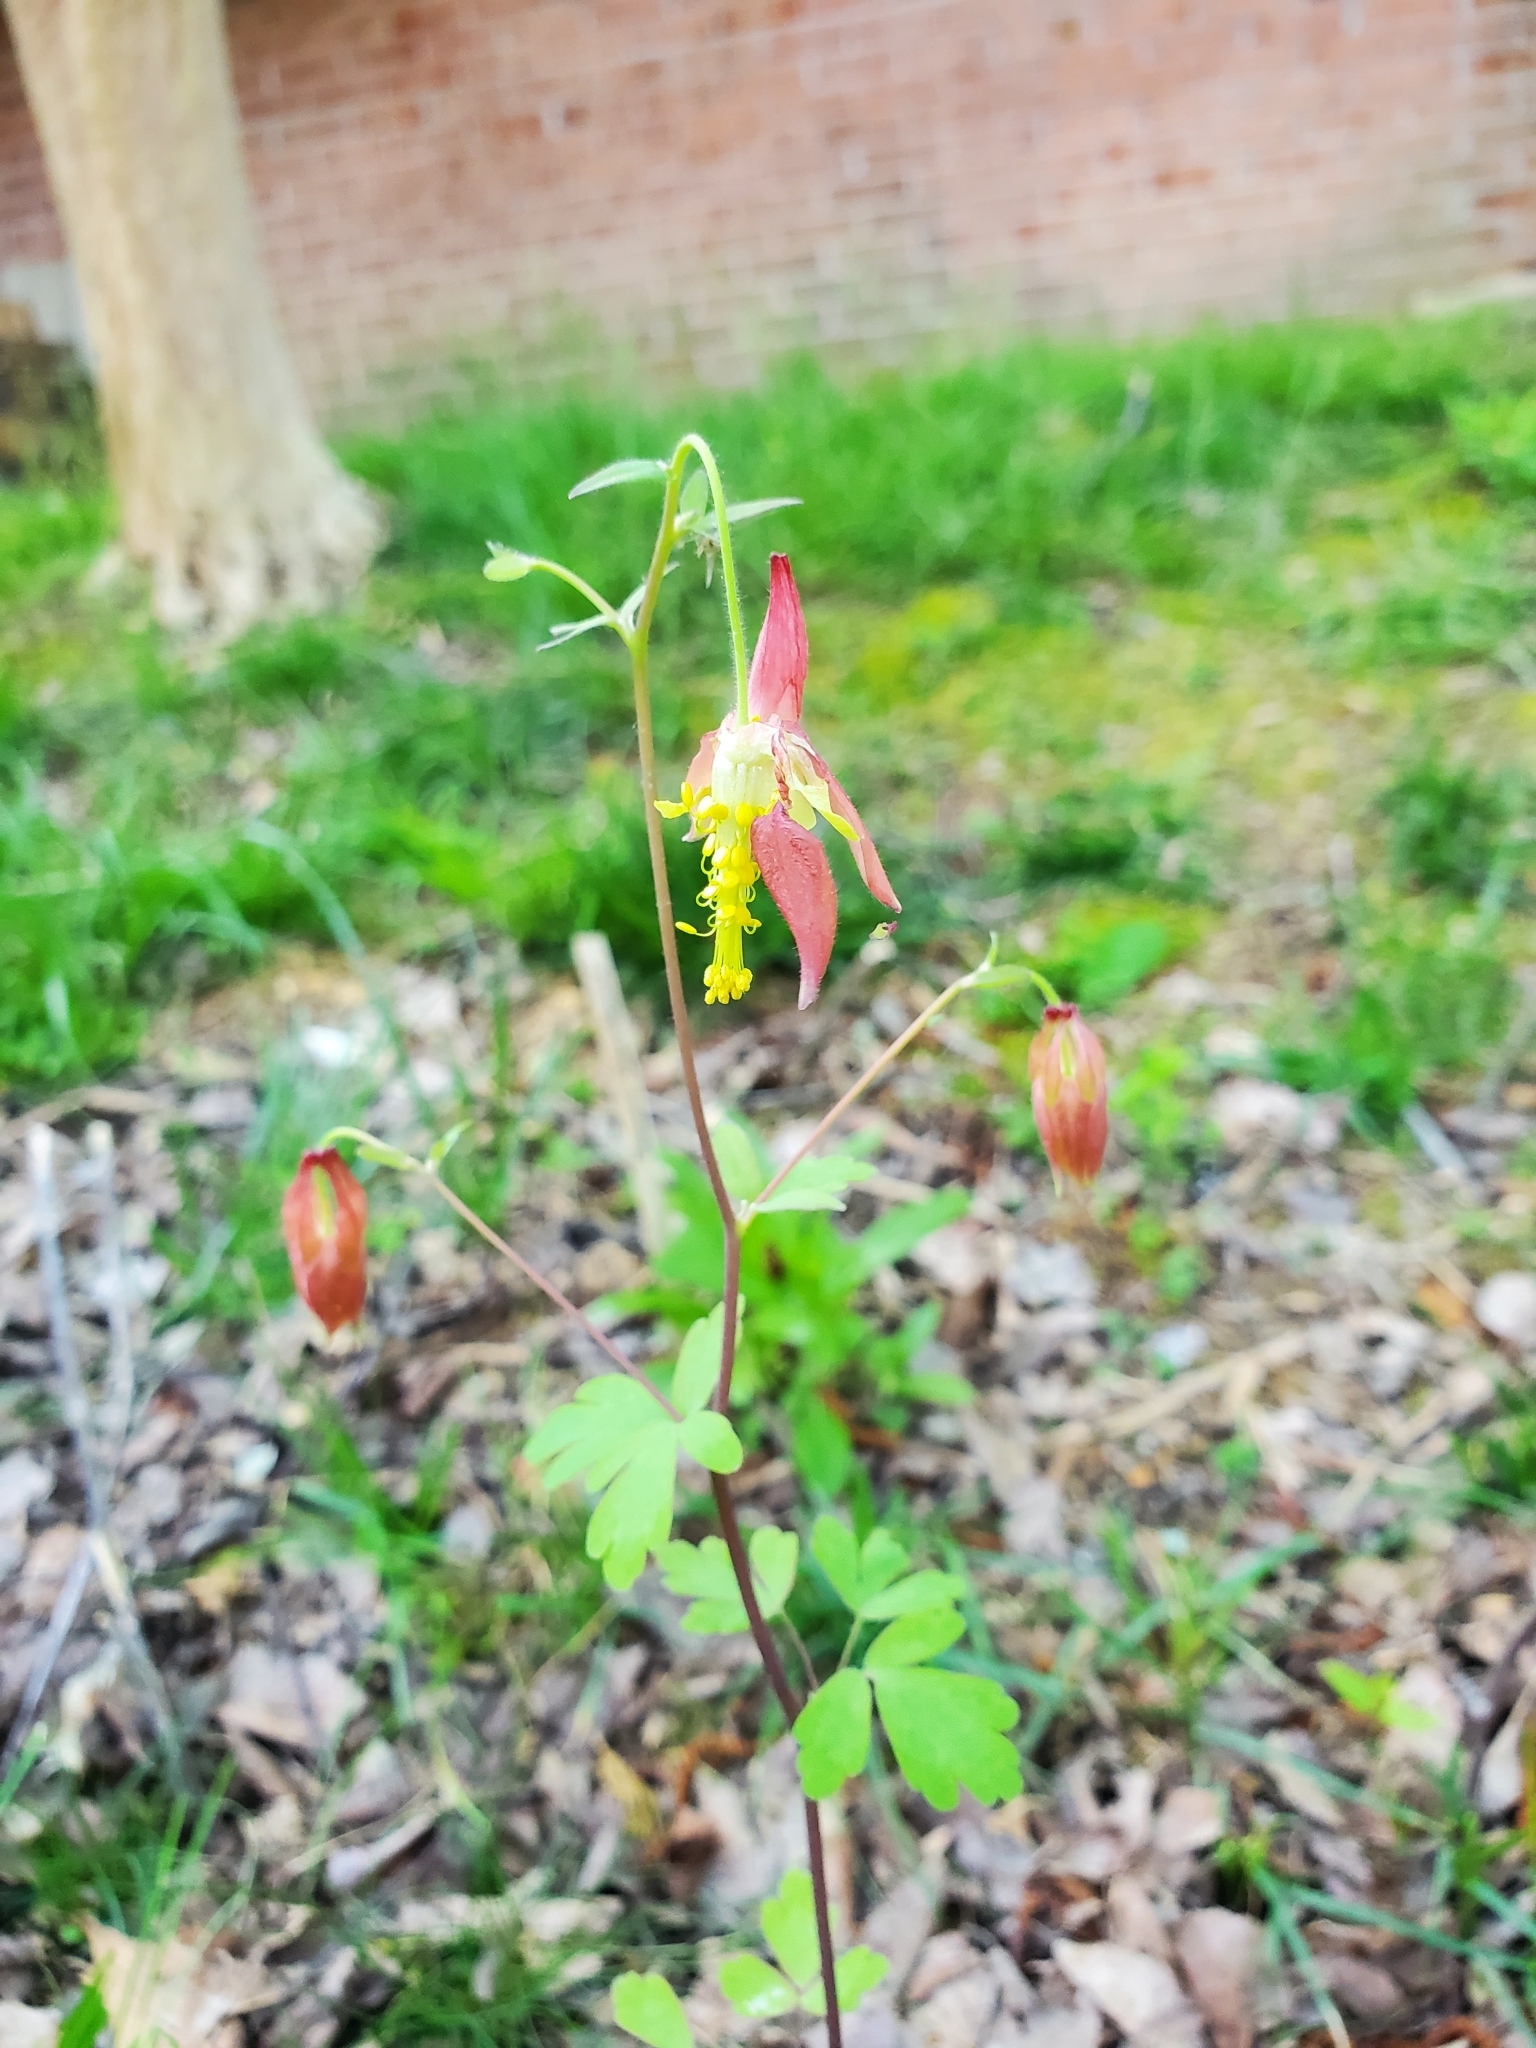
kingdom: Plantae
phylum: Tracheophyta
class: Magnoliopsida
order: Ranunculales
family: Ranunculaceae
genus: Aquilegia
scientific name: Aquilegia canadensis
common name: American columbine
